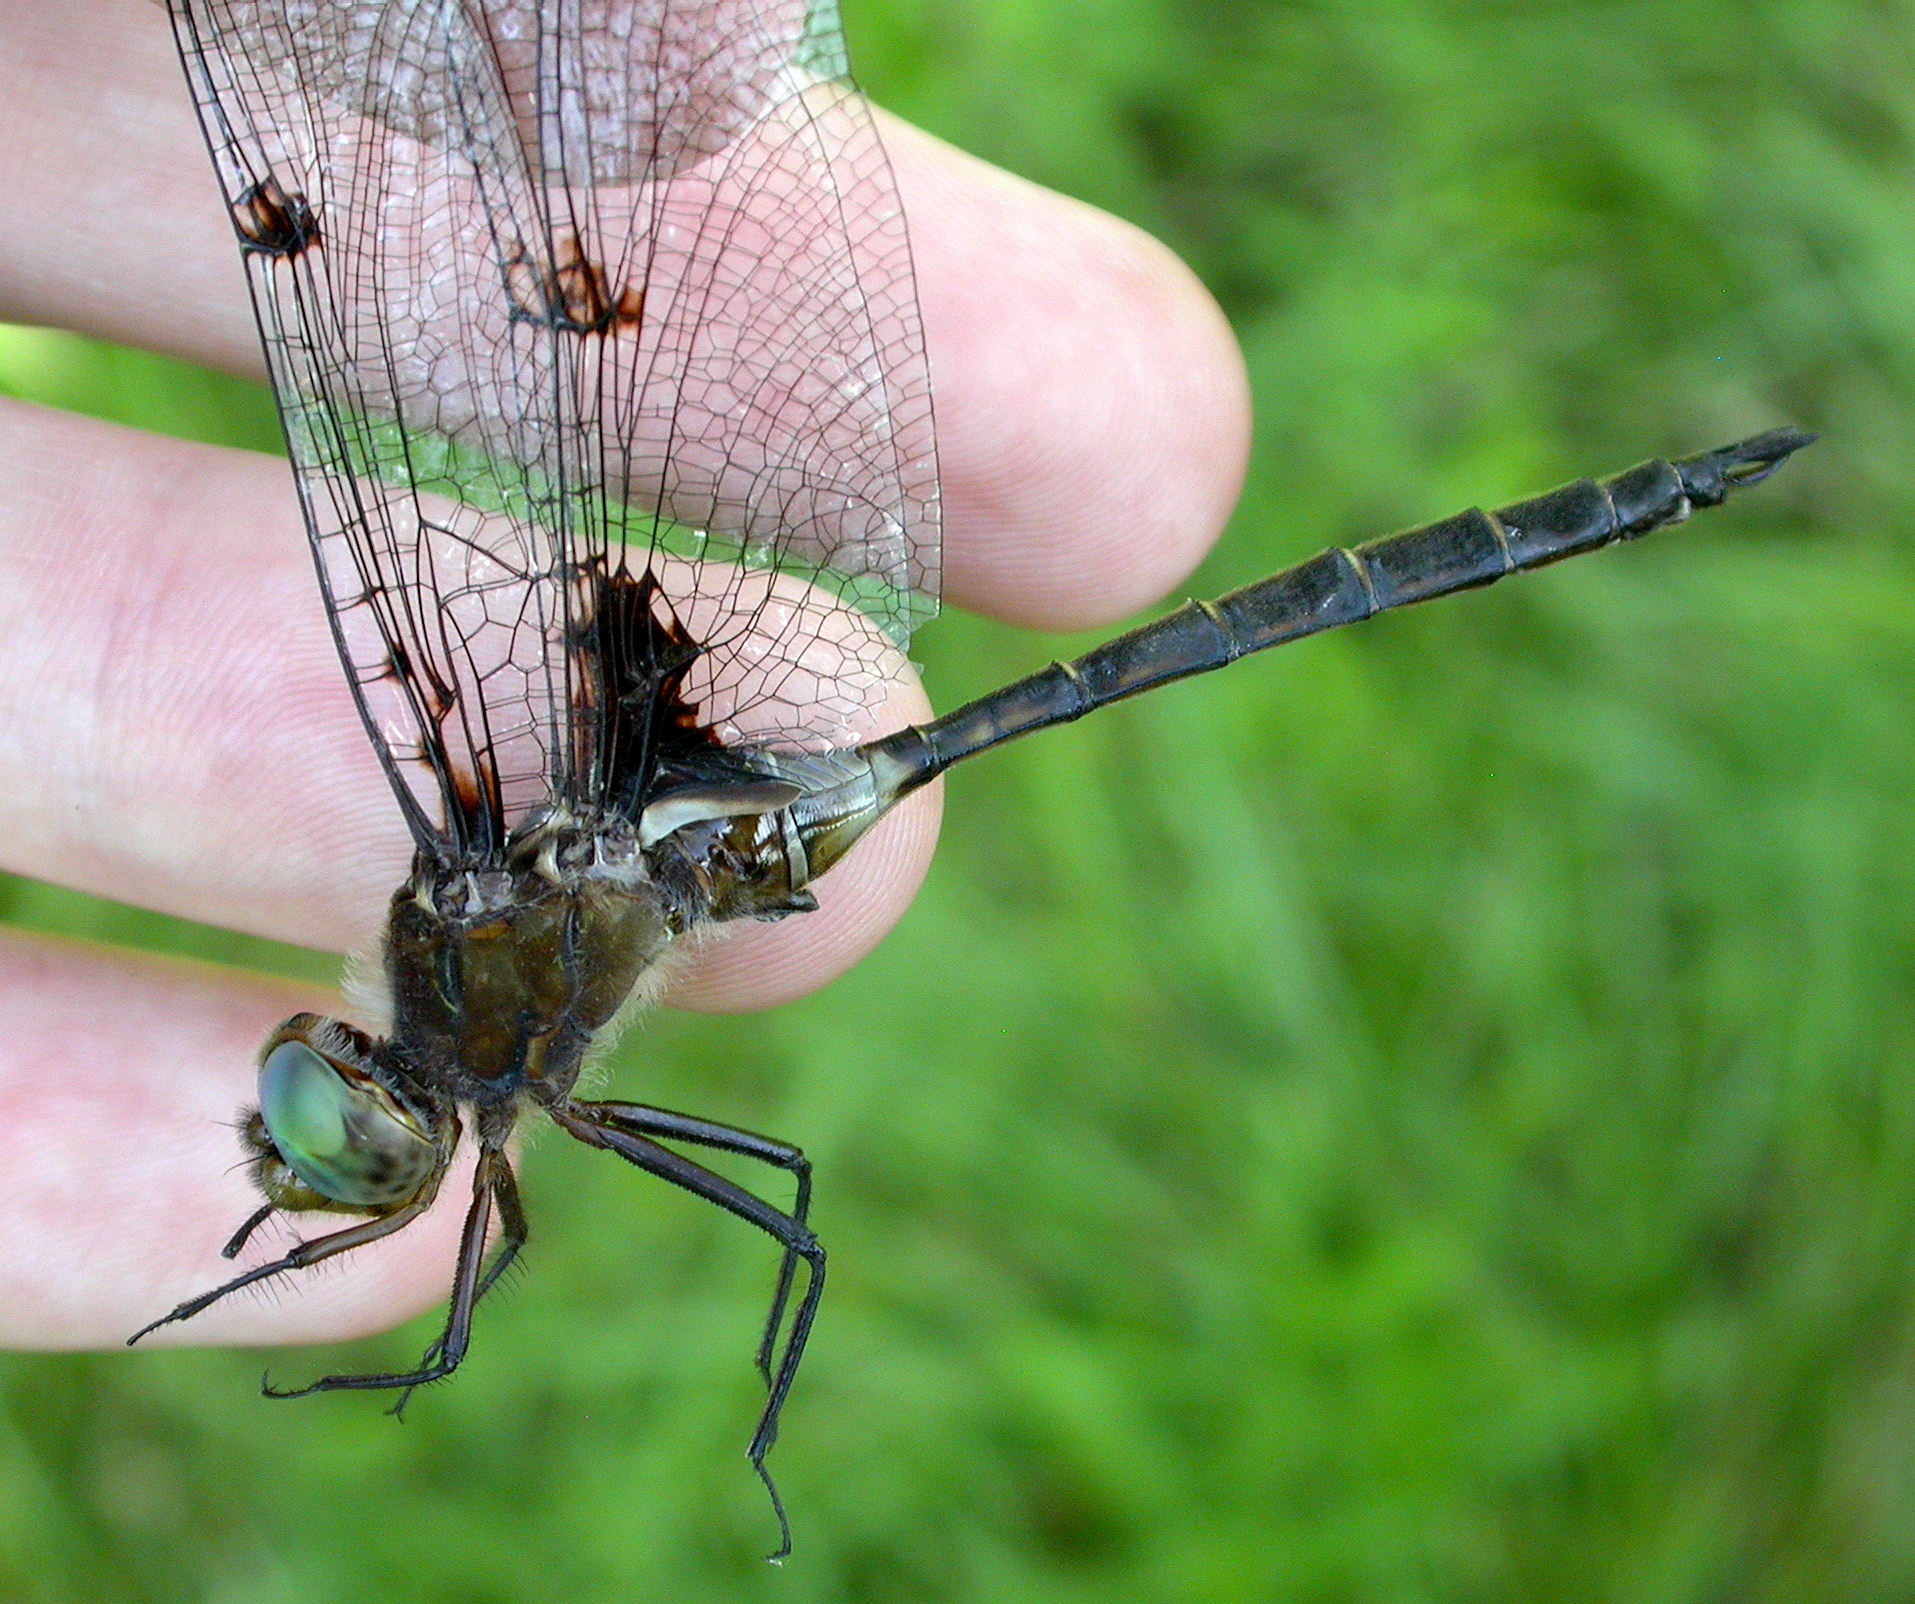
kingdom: Animalia
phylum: Arthropoda
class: Insecta
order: Odonata
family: Corduliidae
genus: Epitheca
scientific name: Epitheca princeps
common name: Prince baskettail
